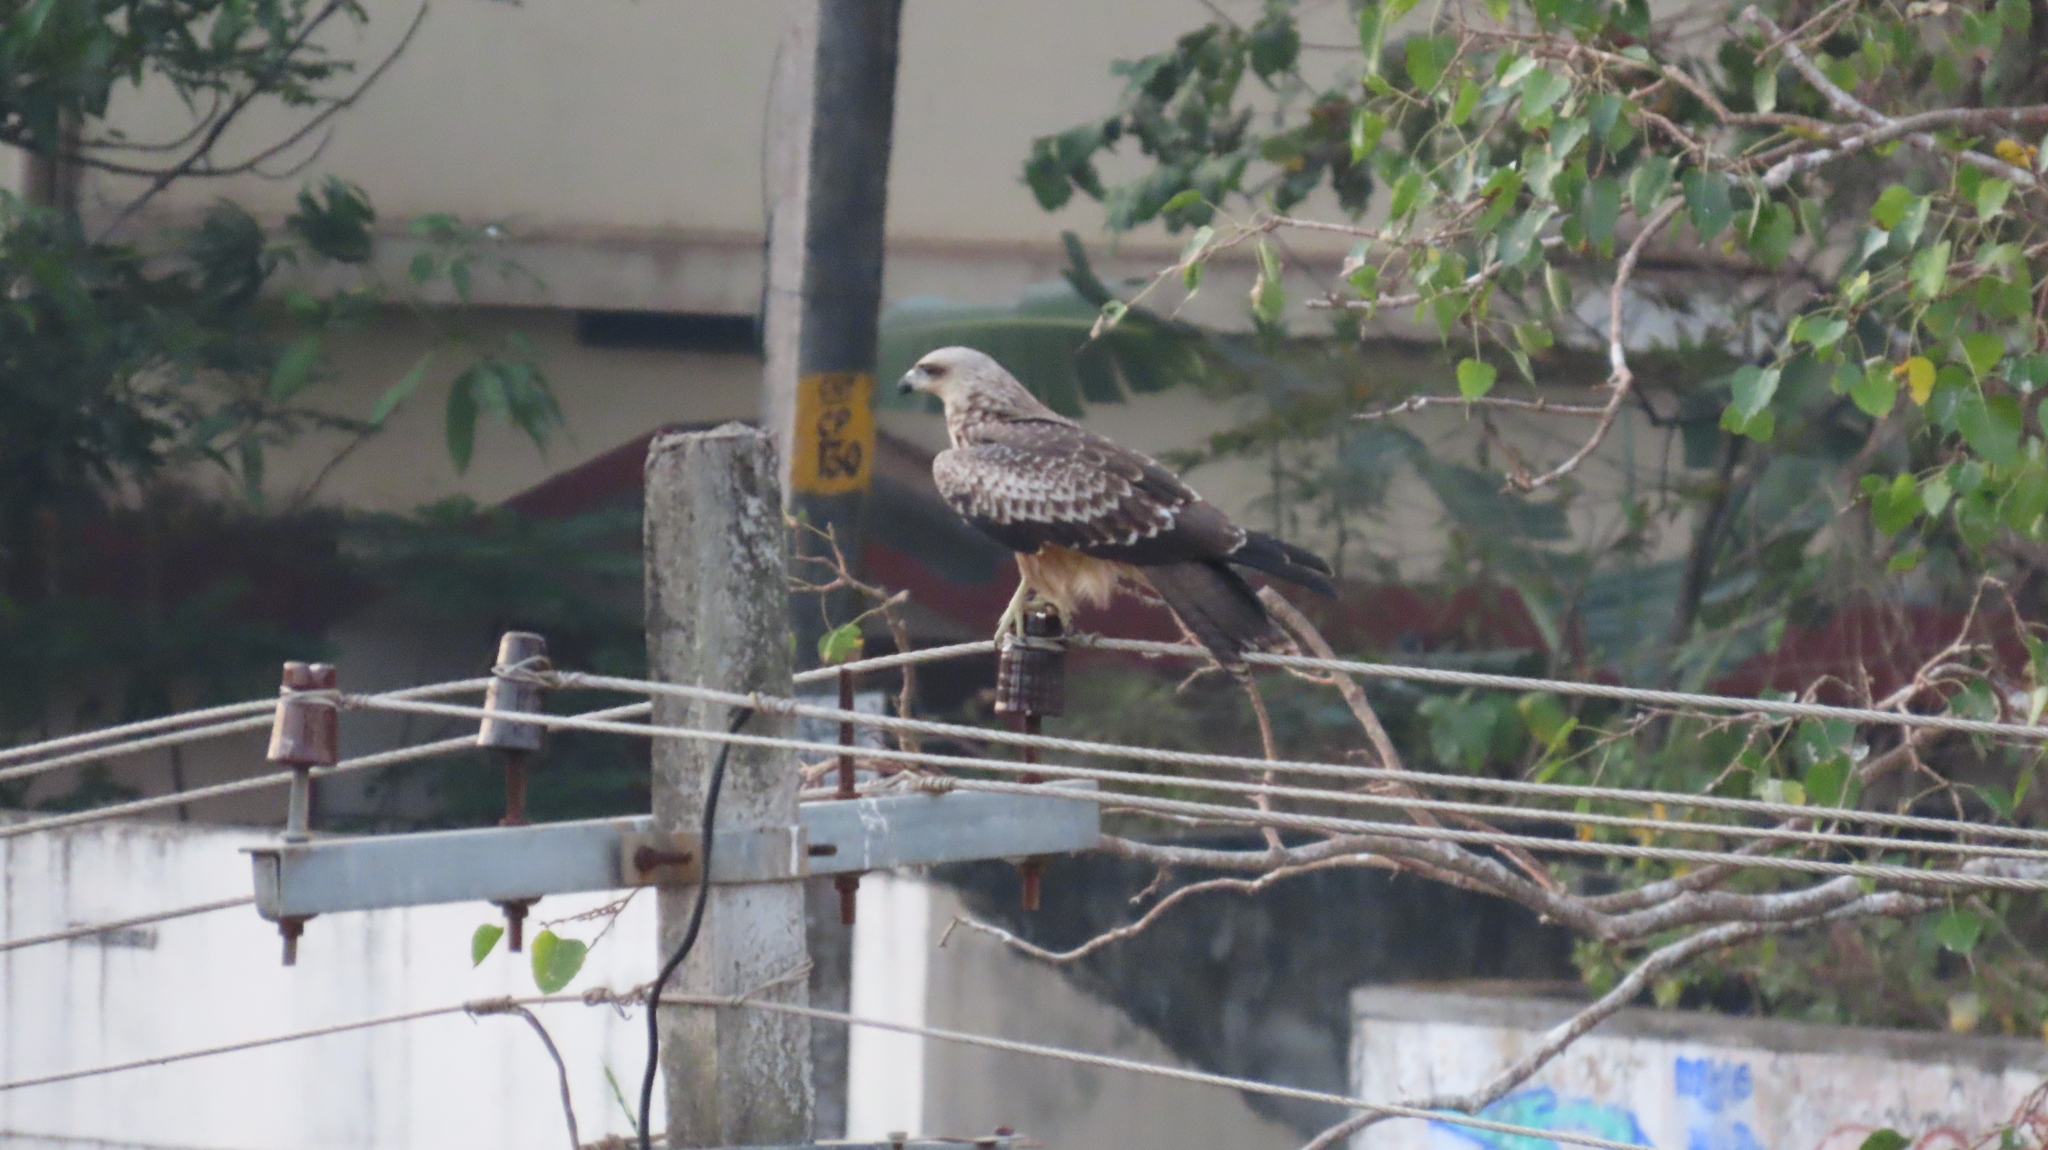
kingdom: Animalia
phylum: Chordata
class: Aves
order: Accipitriformes
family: Accipitridae
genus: Milvus
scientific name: Milvus migrans
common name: Black kite
